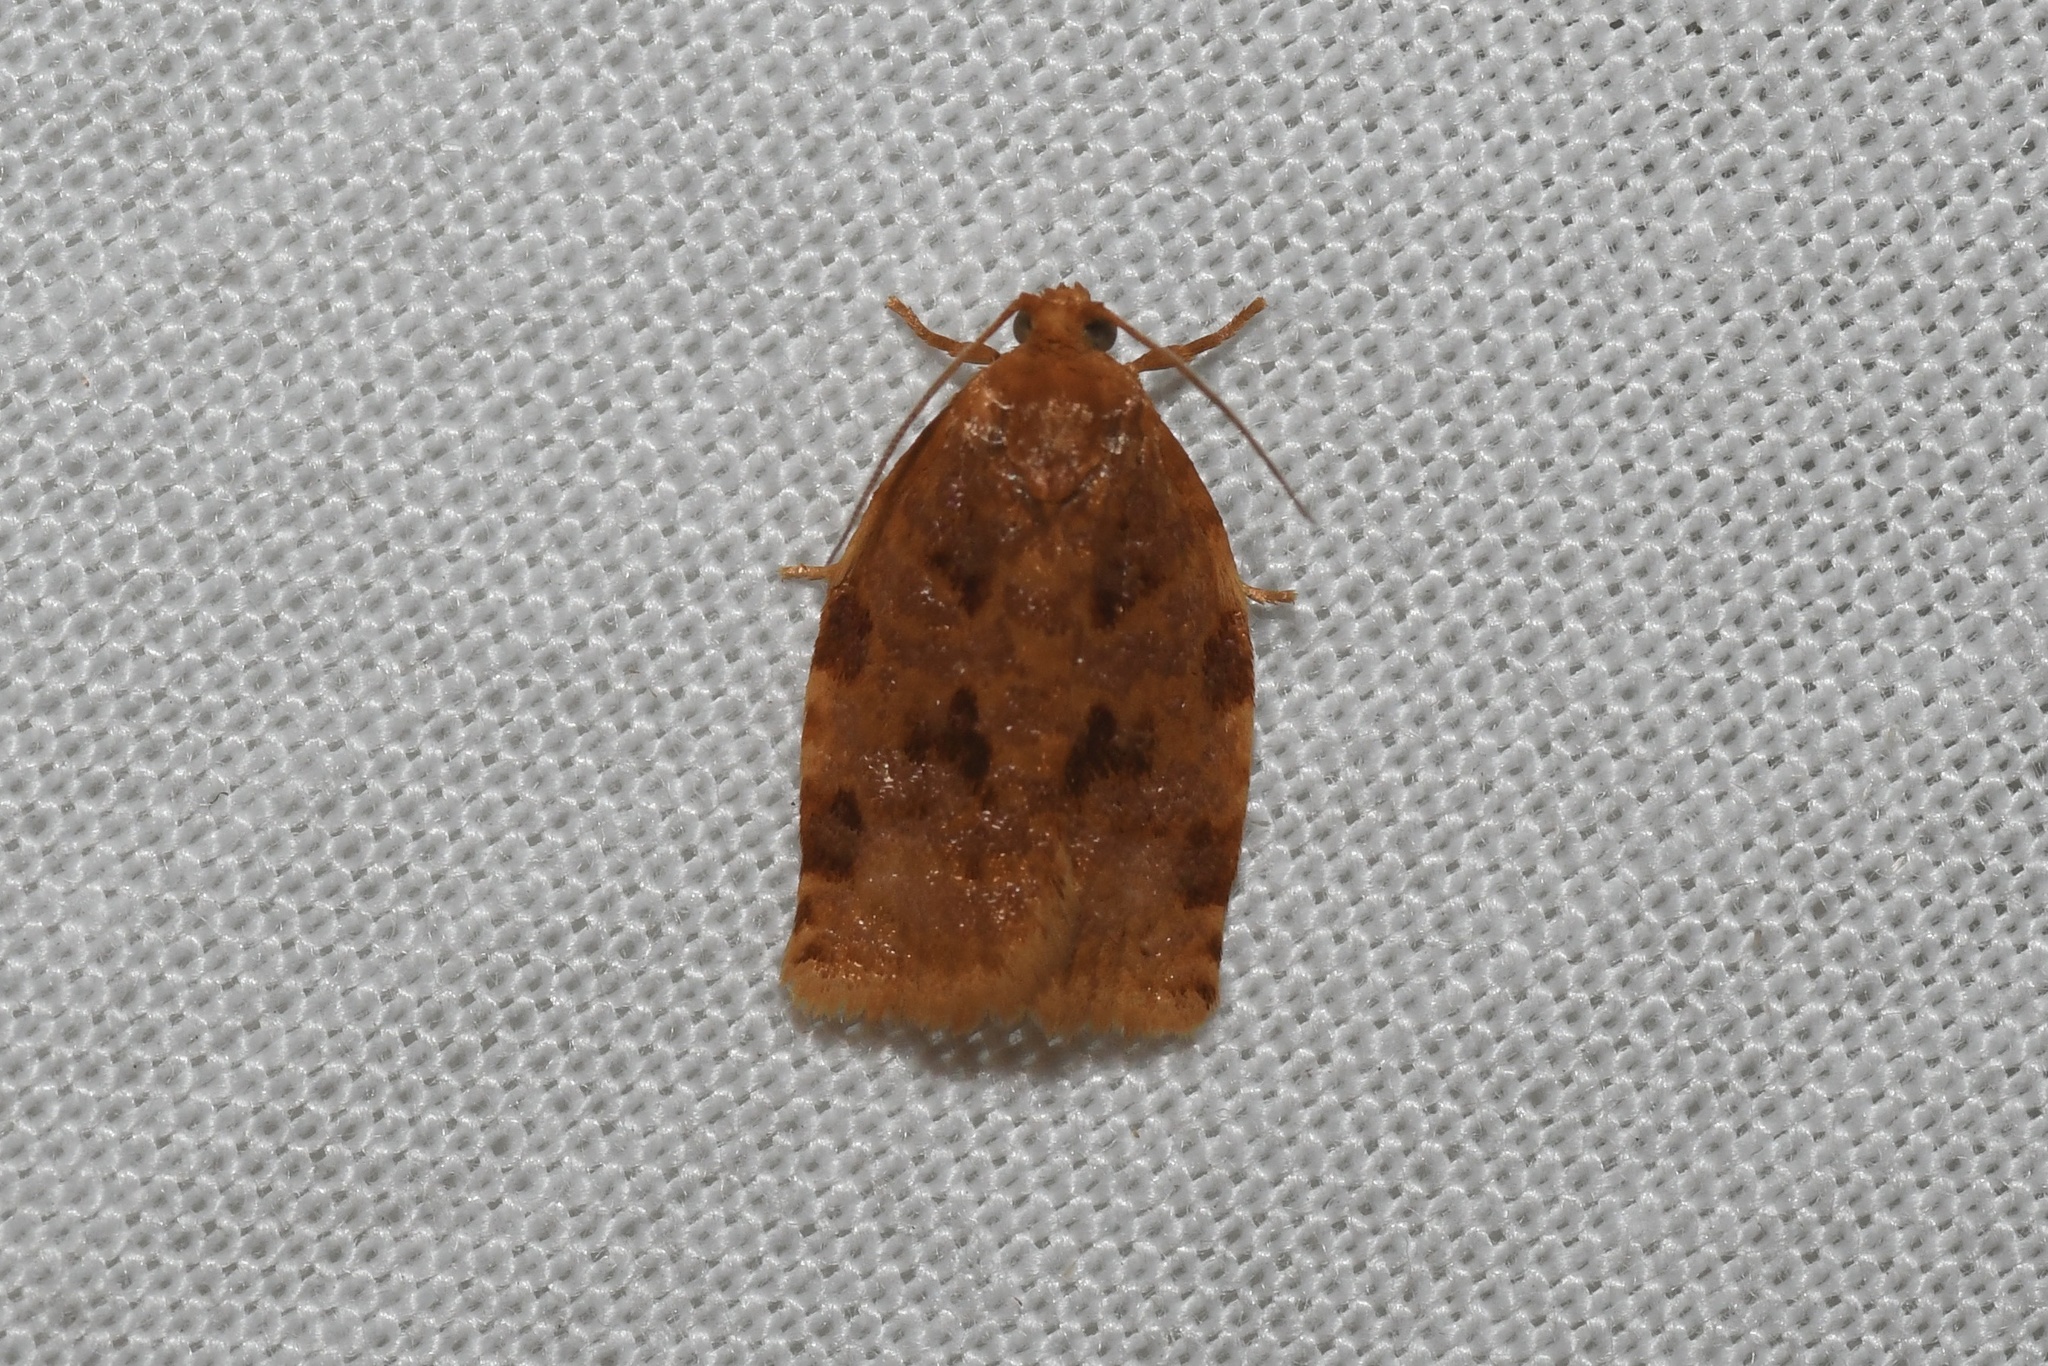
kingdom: Animalia
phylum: Arthropoda
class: Insecta
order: Lepidoptera
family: Tortricidae
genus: Archips
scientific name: Archips cerasivorana
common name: Uglynest caterpillar
